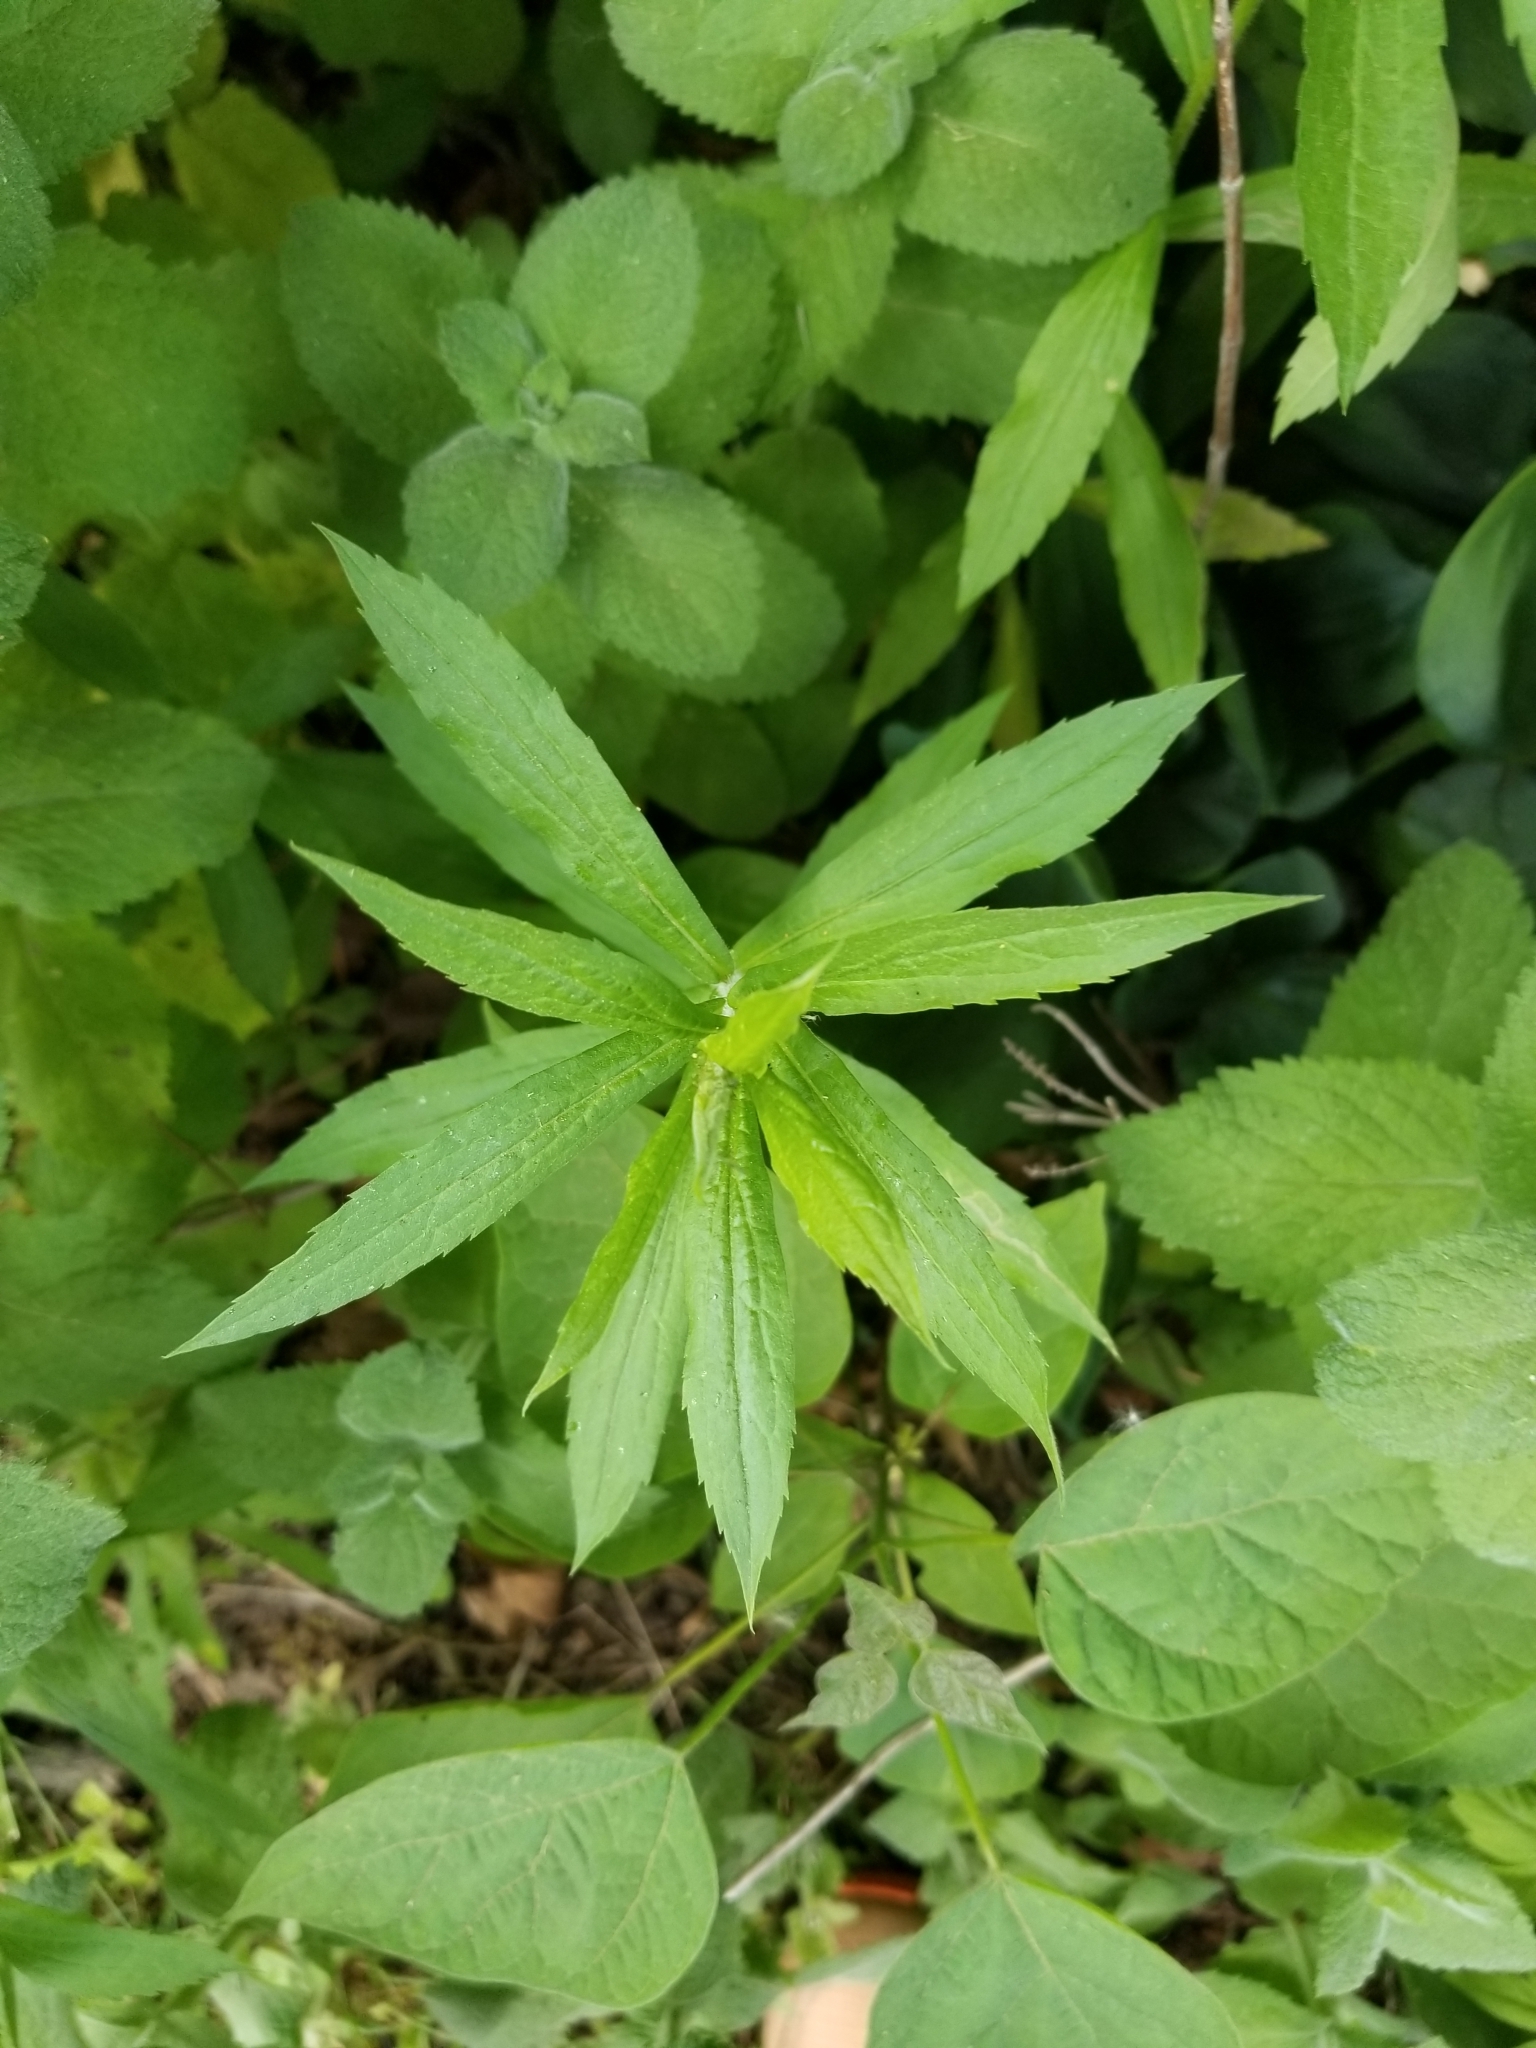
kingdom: Plantae
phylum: Tracheophyta
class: Magnoliopsida
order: Asterales
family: Asteraceae
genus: Erigeron
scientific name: Erigeron canadensis
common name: Canadian fleabane
